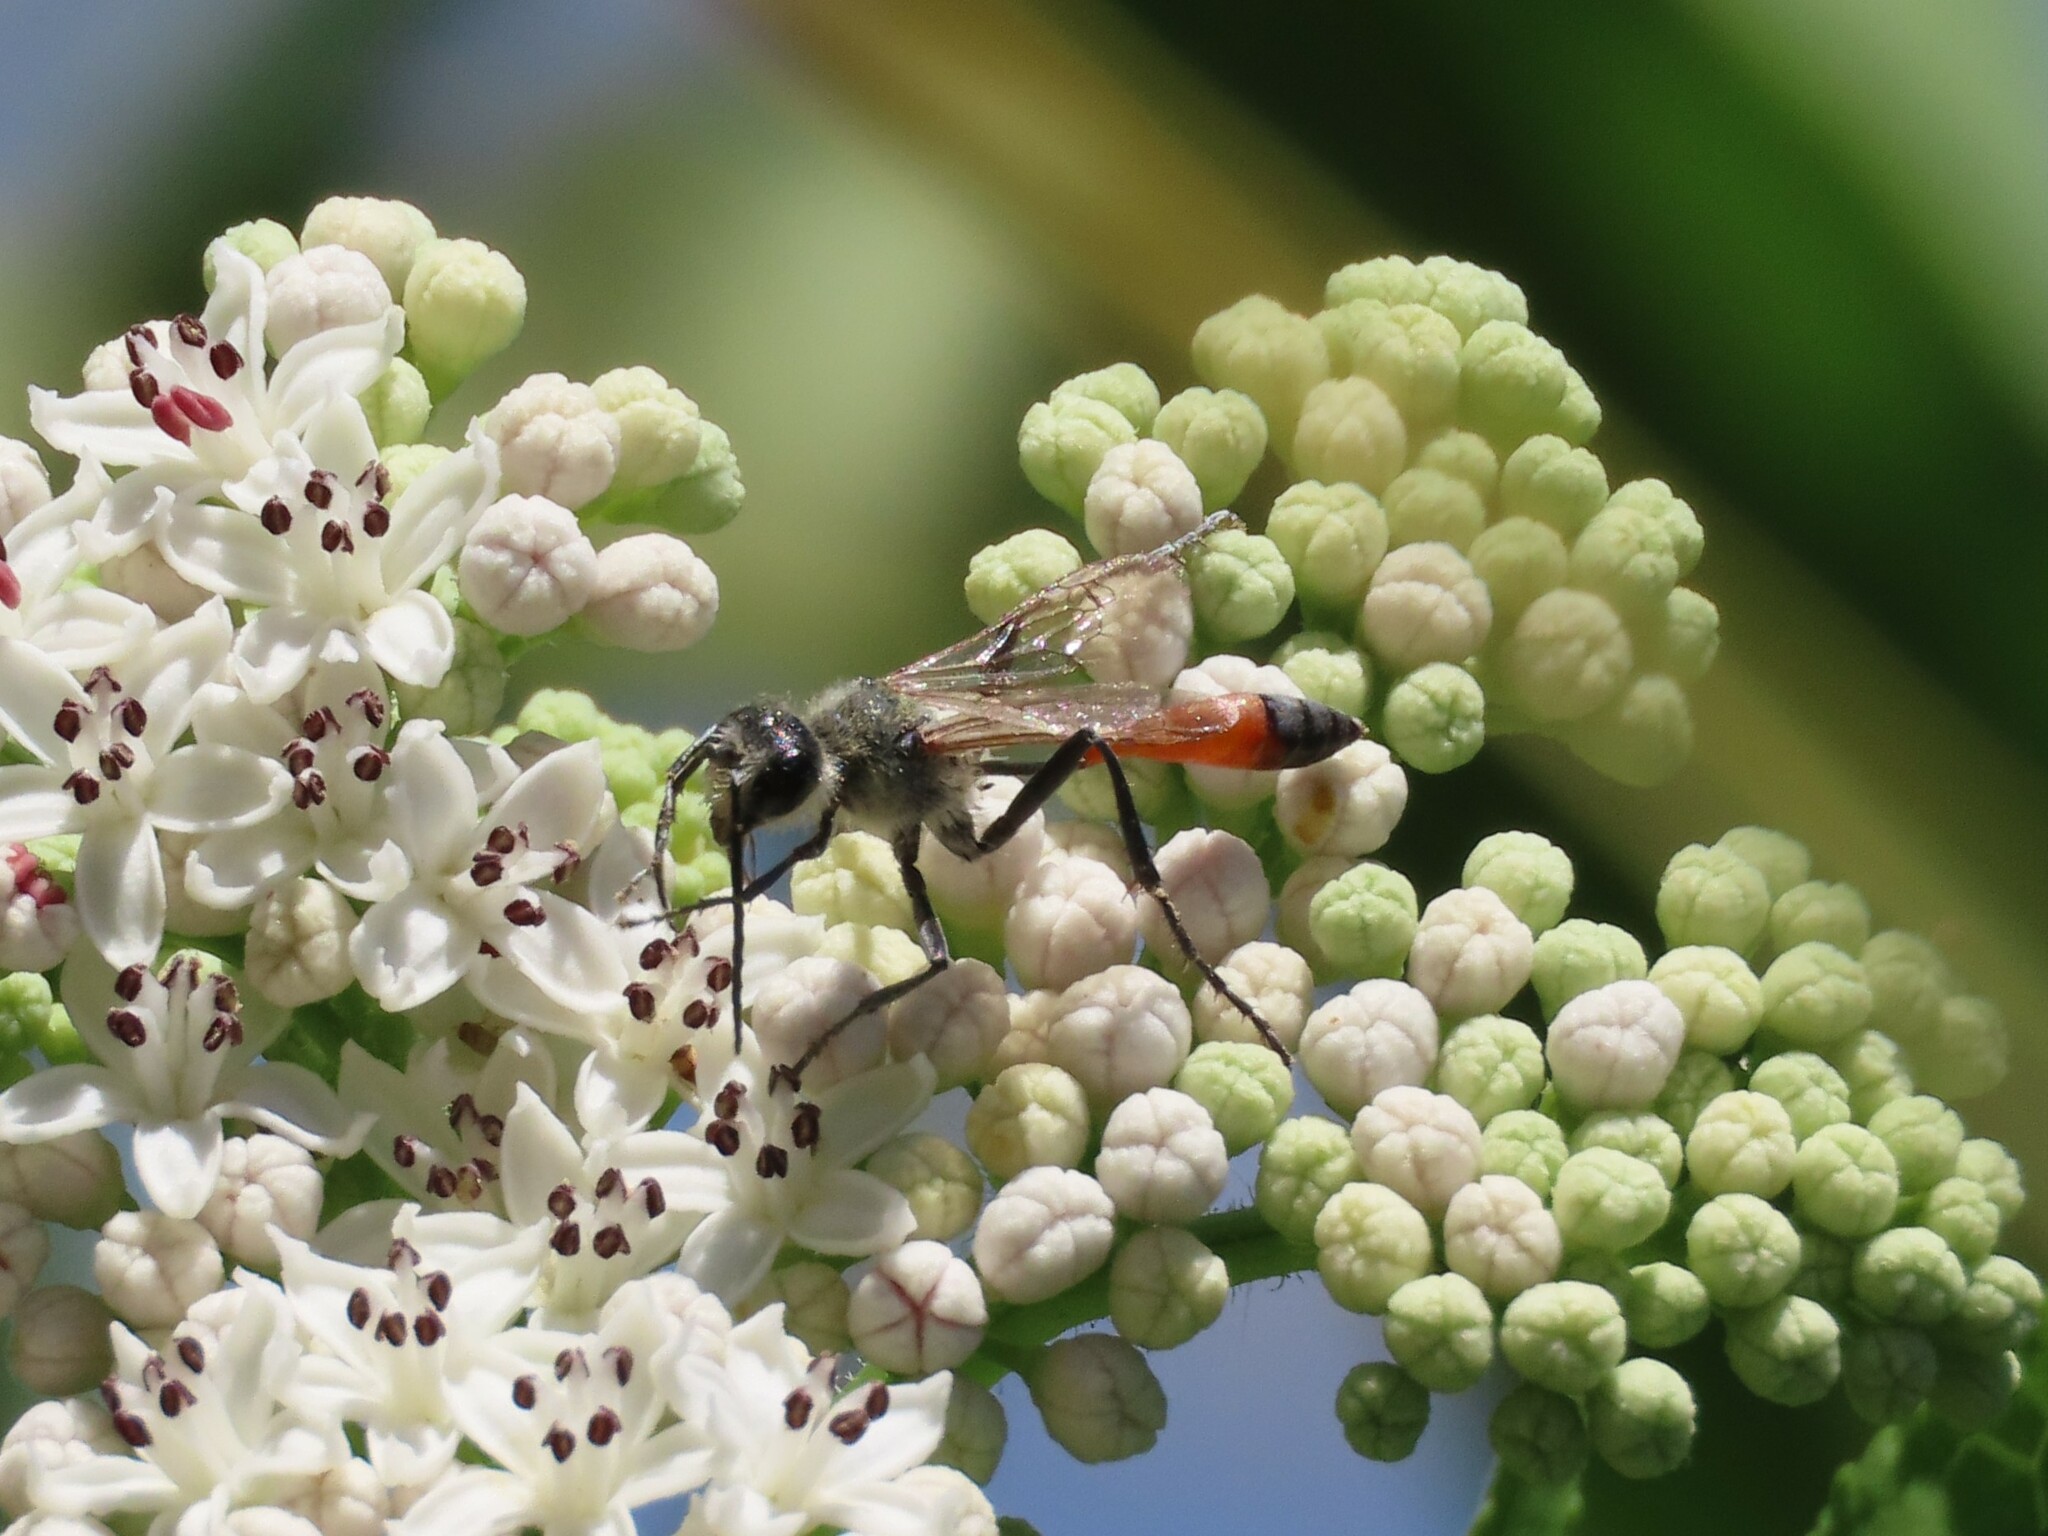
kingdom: Animalia
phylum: Arthropoda
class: Insecta
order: Hymenoptera
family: Sphecidae
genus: Podalonia
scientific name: Podalonia tydei
